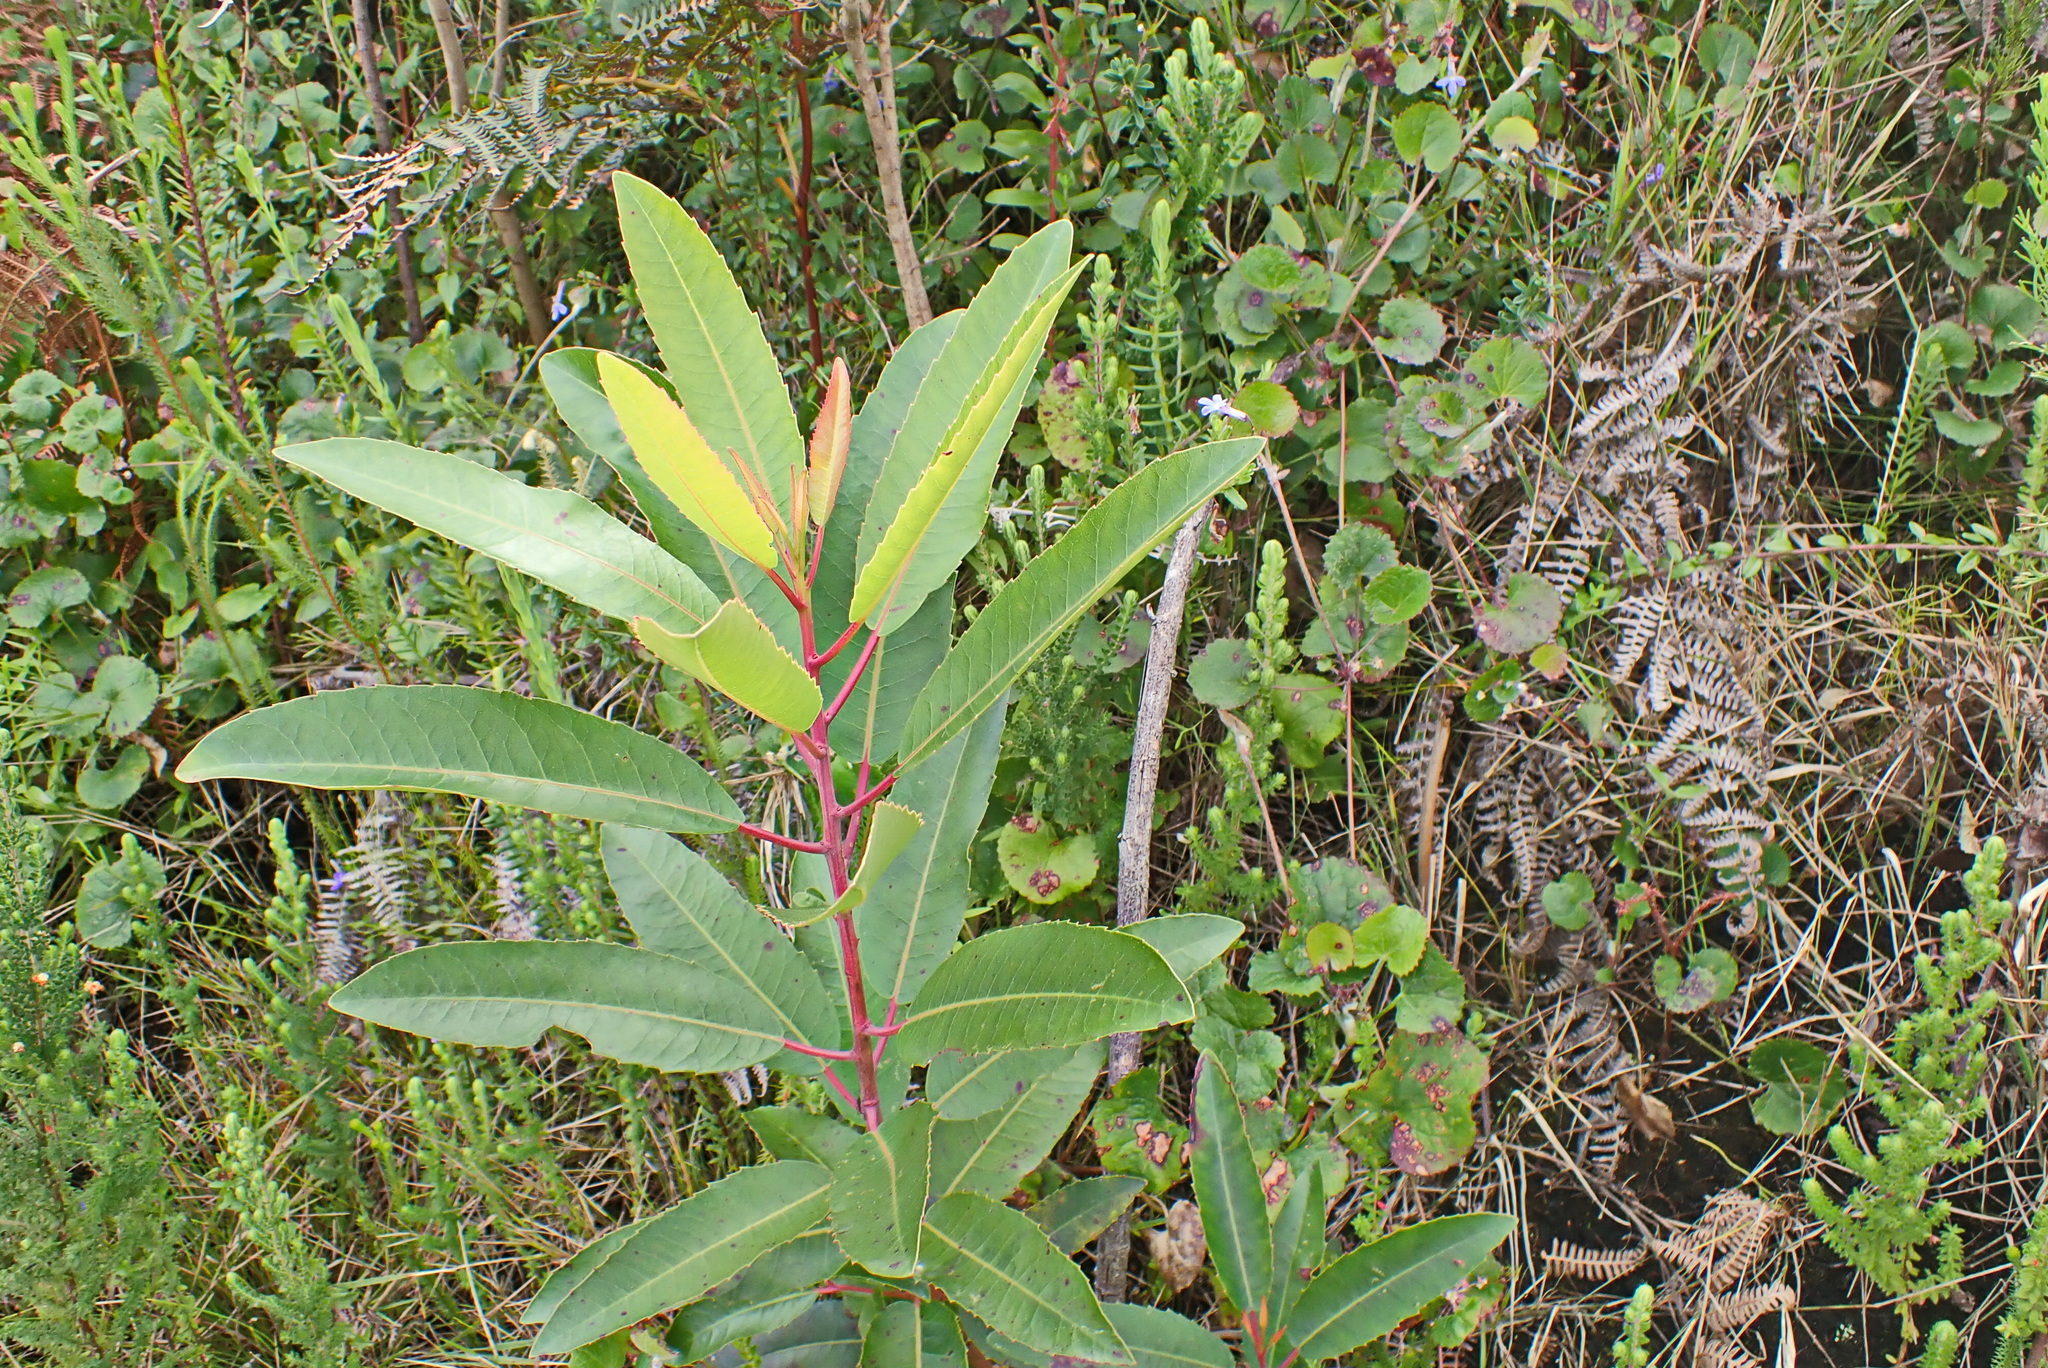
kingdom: Plantae
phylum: Tracheophyta
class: Magnoliopsida
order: Sapindales
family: Anacardiaceae
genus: Laurophyllus
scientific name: Laurophyllus capensis
